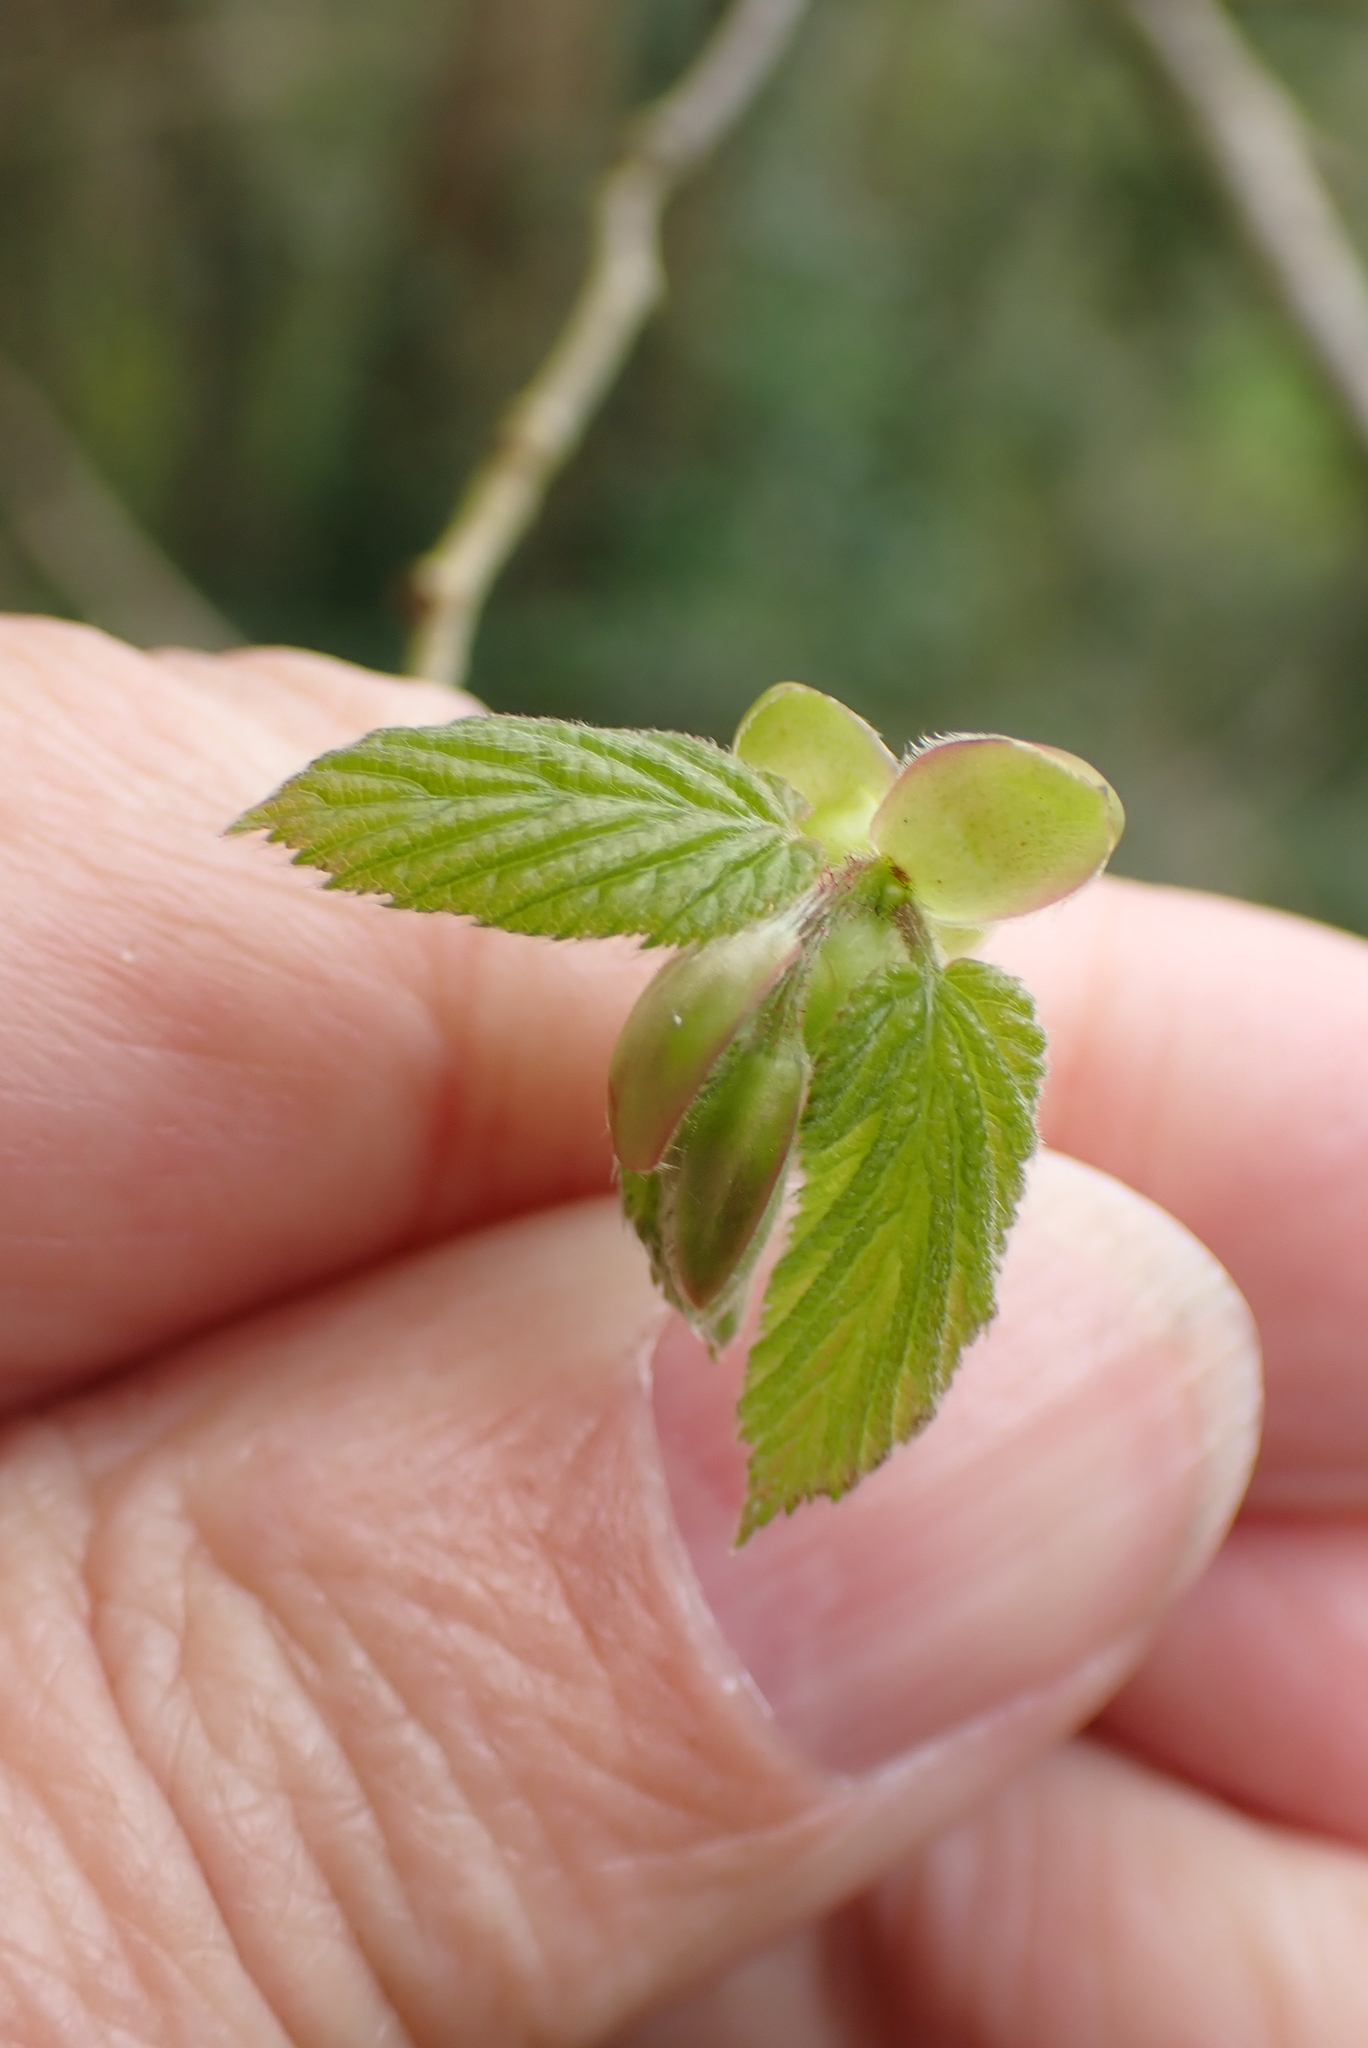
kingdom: Plantae
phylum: Tracheophyta
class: Magnoliopsida
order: Fagales
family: Betulaceae
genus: Corylus
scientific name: Corylus avellana
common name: European hazel
